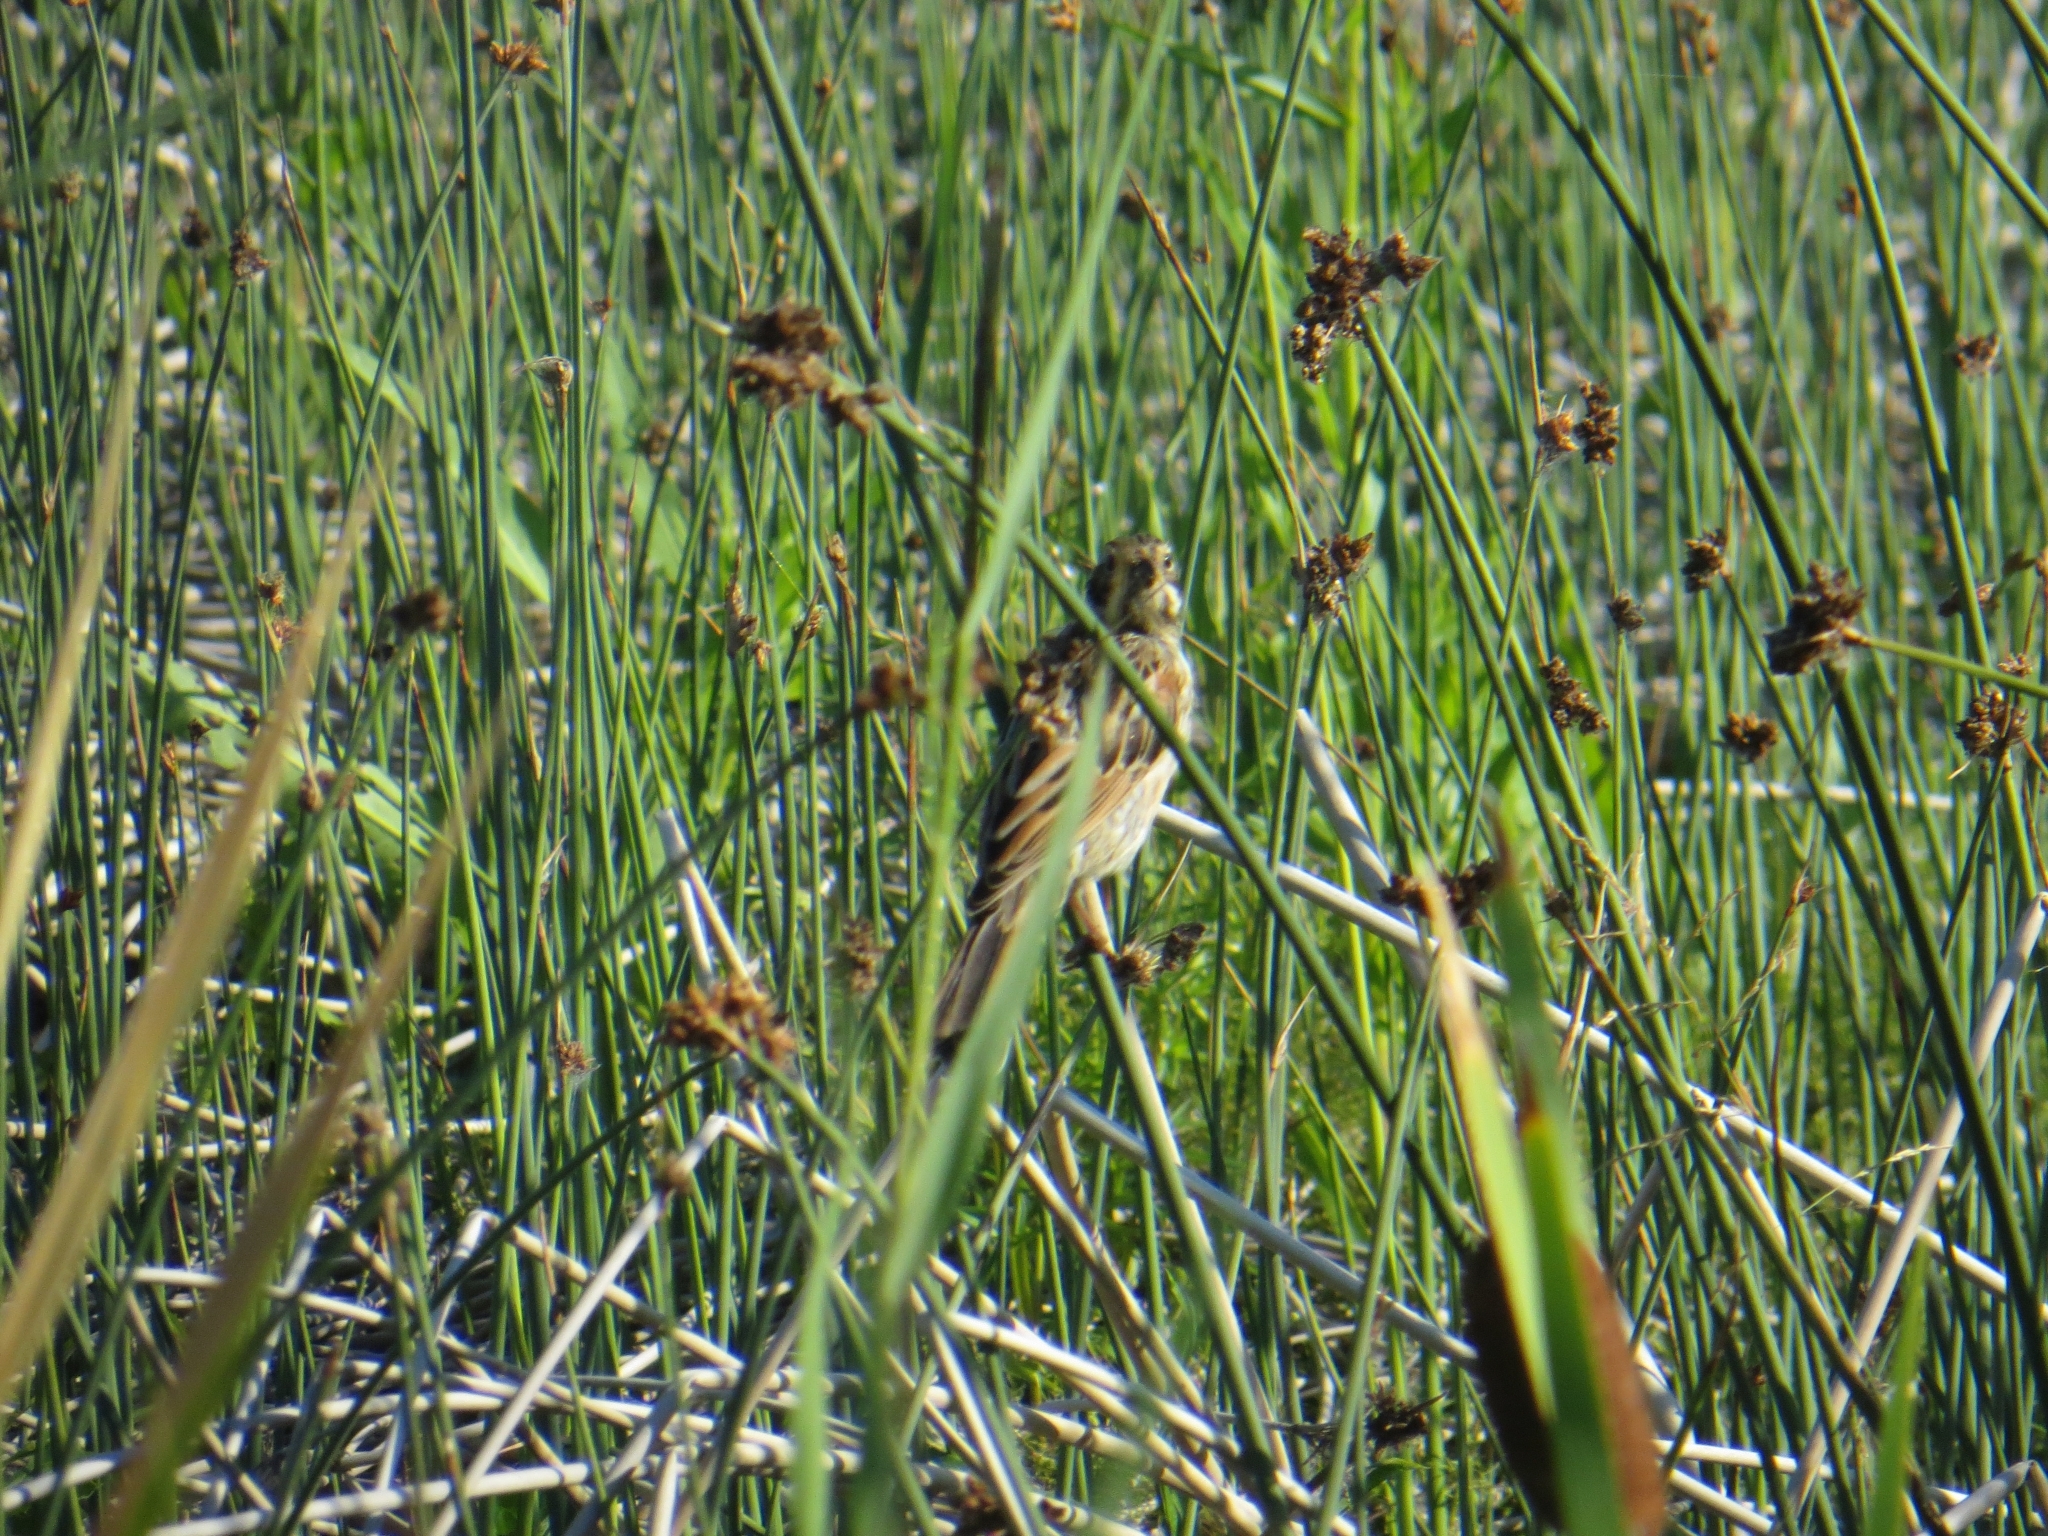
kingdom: Animalia
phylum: Chordata
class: Aves
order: Passeriformes
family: Emberizidae
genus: Emberiza
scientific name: Emberiza schoeniclus
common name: Reed bunting
